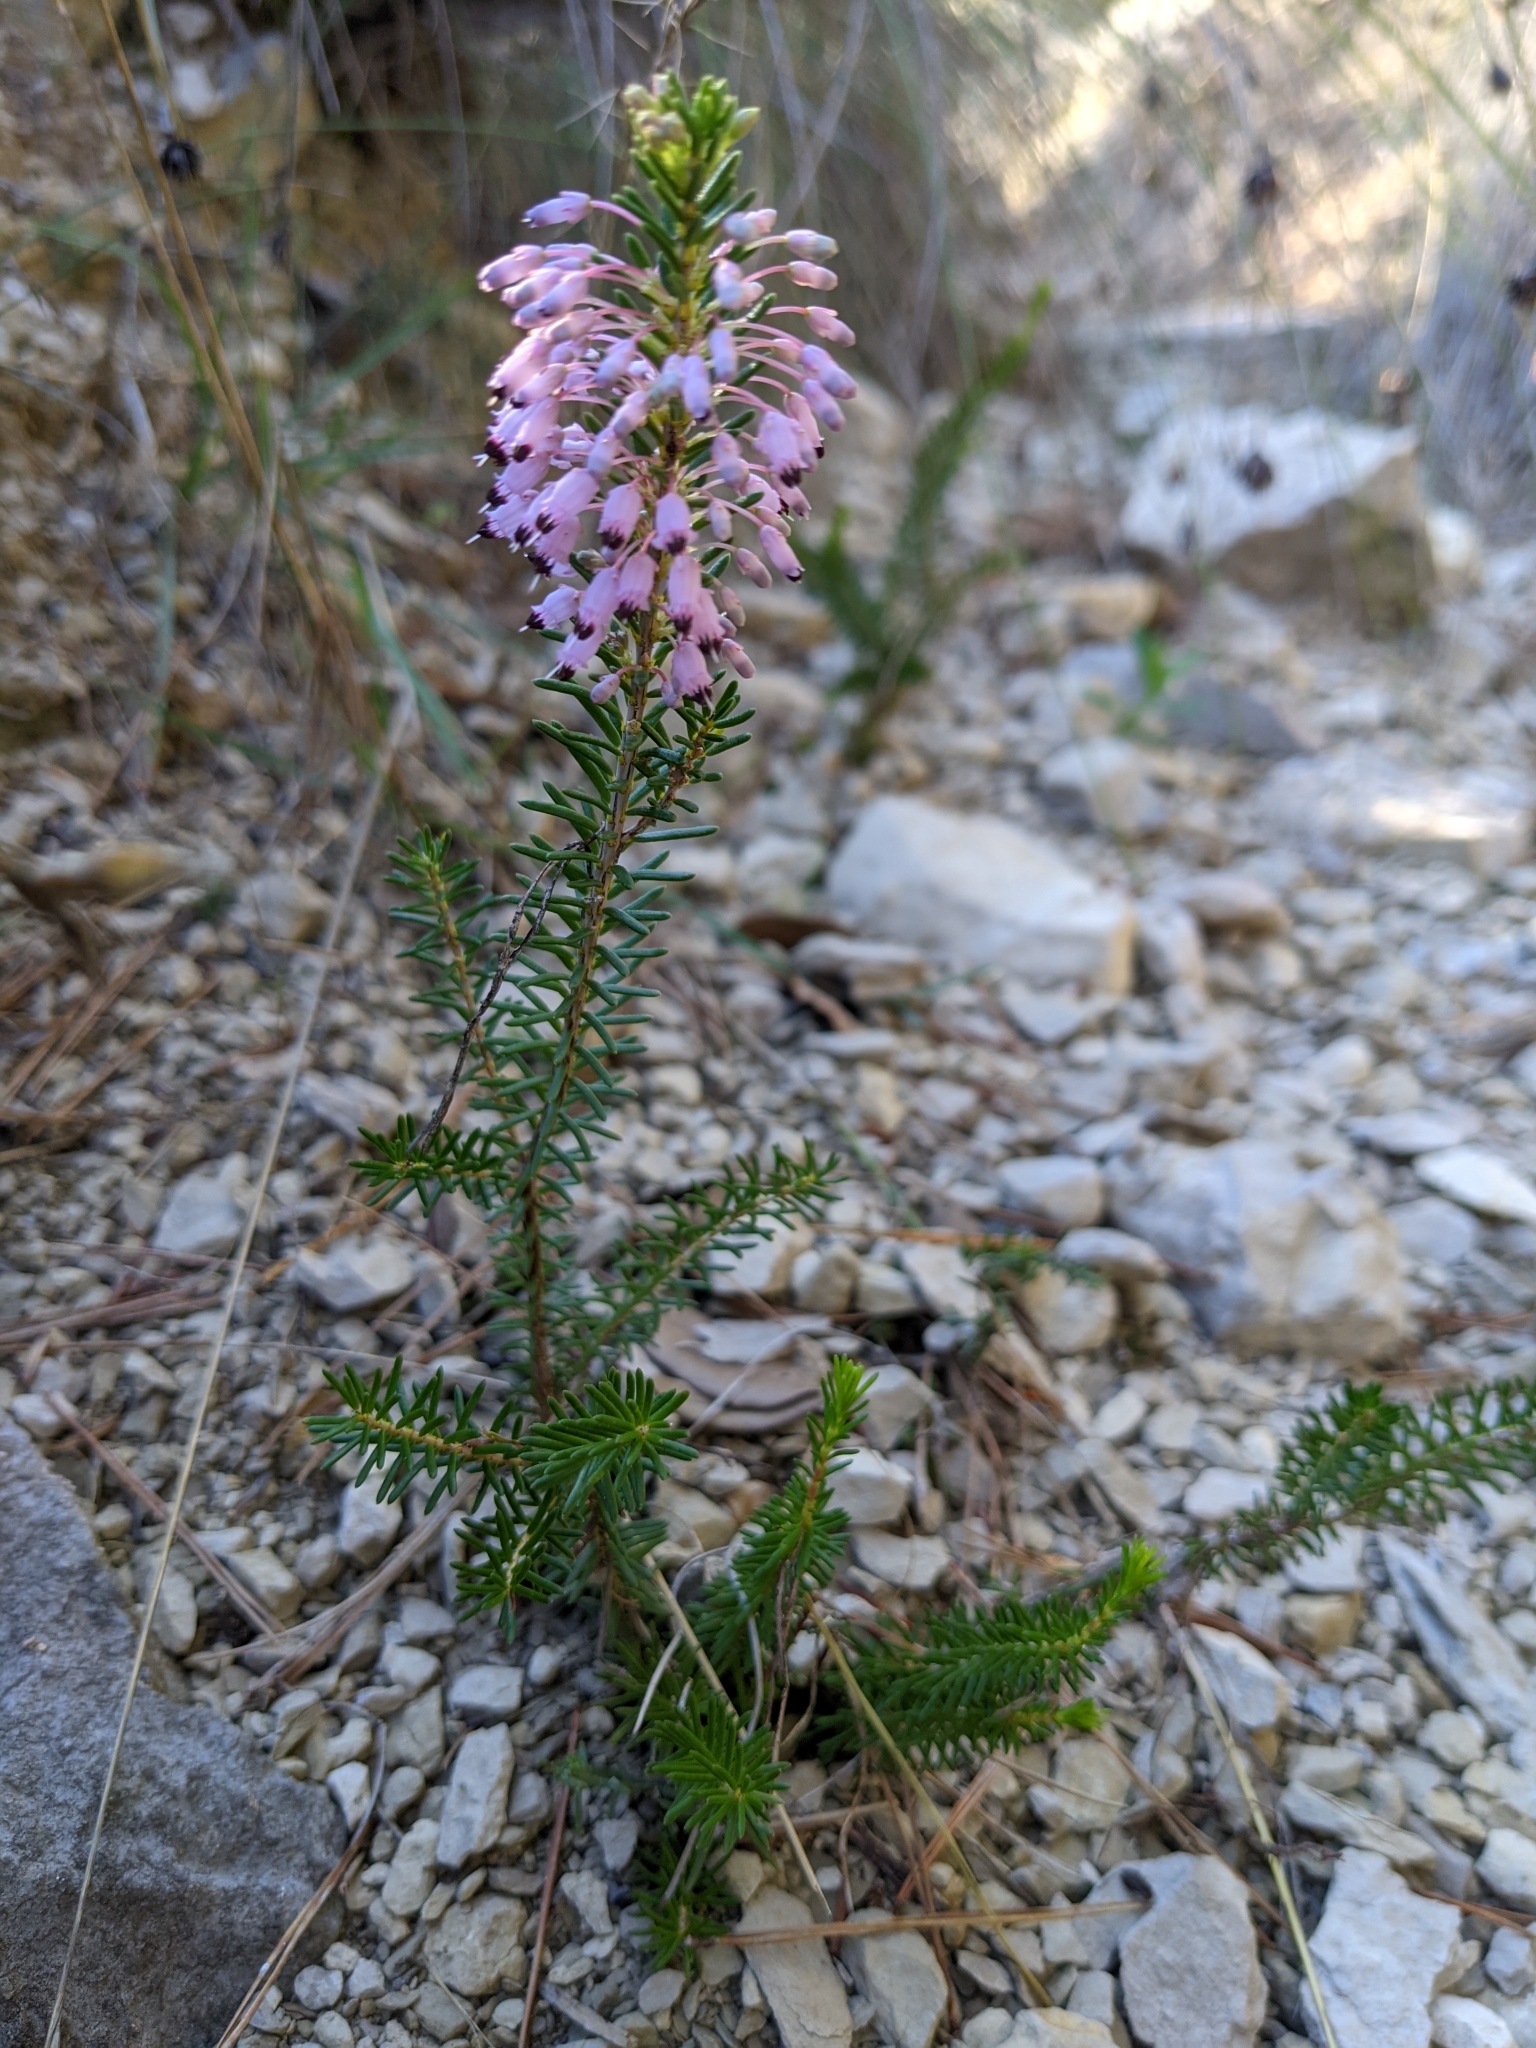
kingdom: Plantae
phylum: Tracheophyta
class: Magnoliopsida
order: Ericales
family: Ericaceae
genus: Erica
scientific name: Erica multiflora
